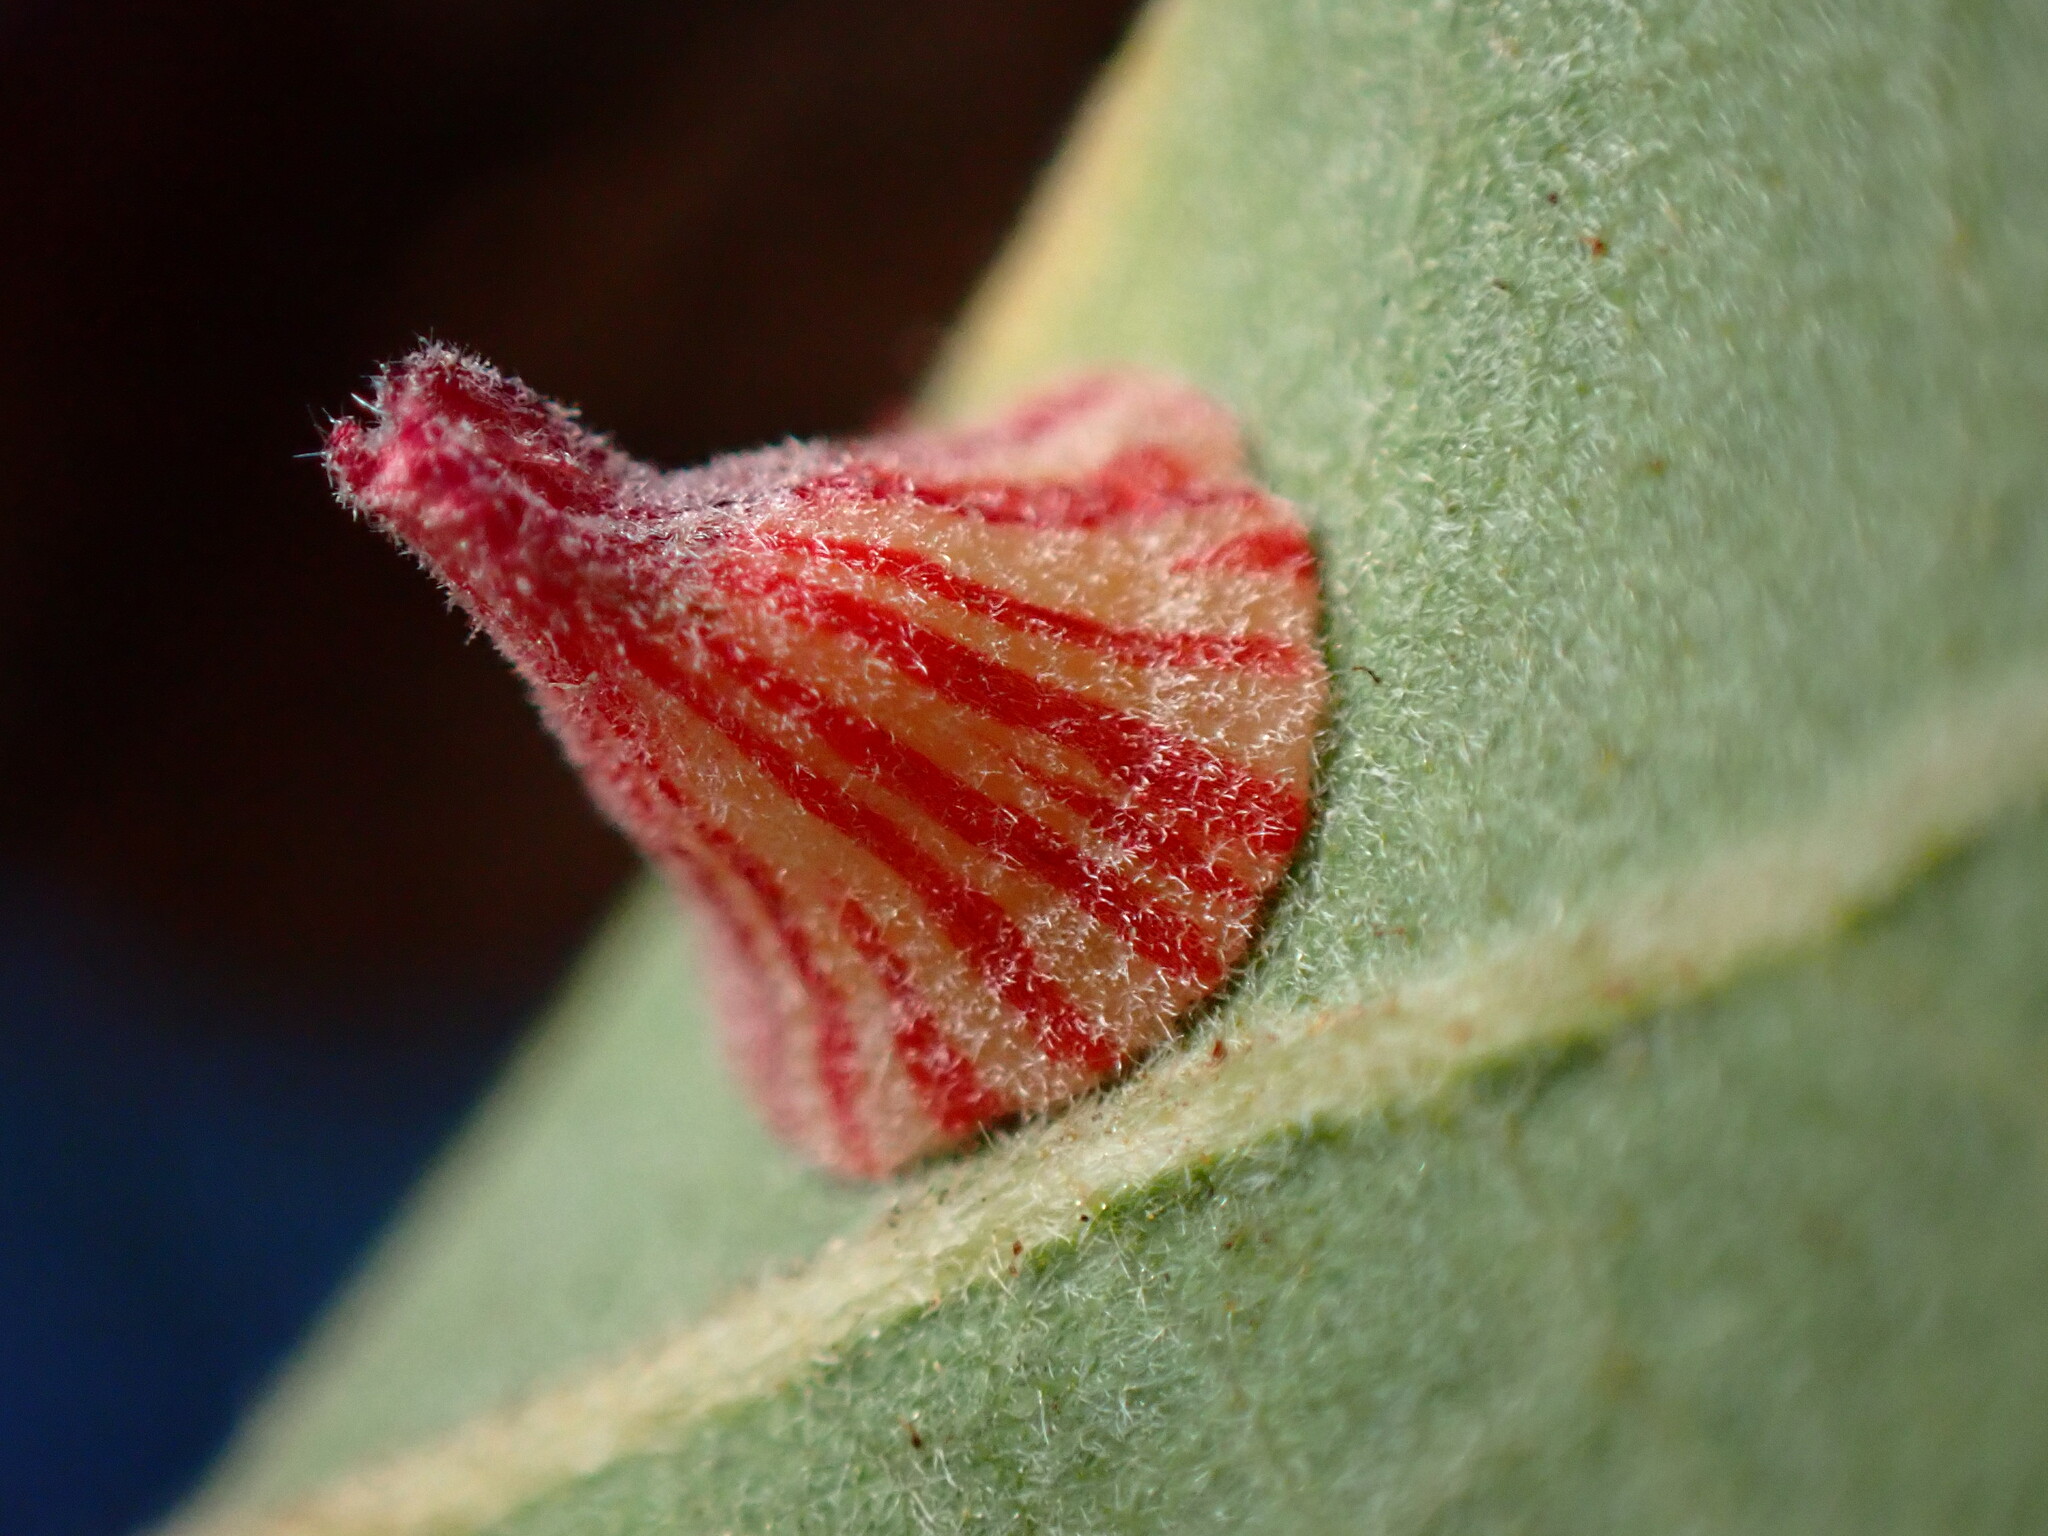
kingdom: Animalia
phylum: Arthropoda
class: Insecta
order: Hymenoptera
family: Cynipidae
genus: Andricus
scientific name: Andricus
